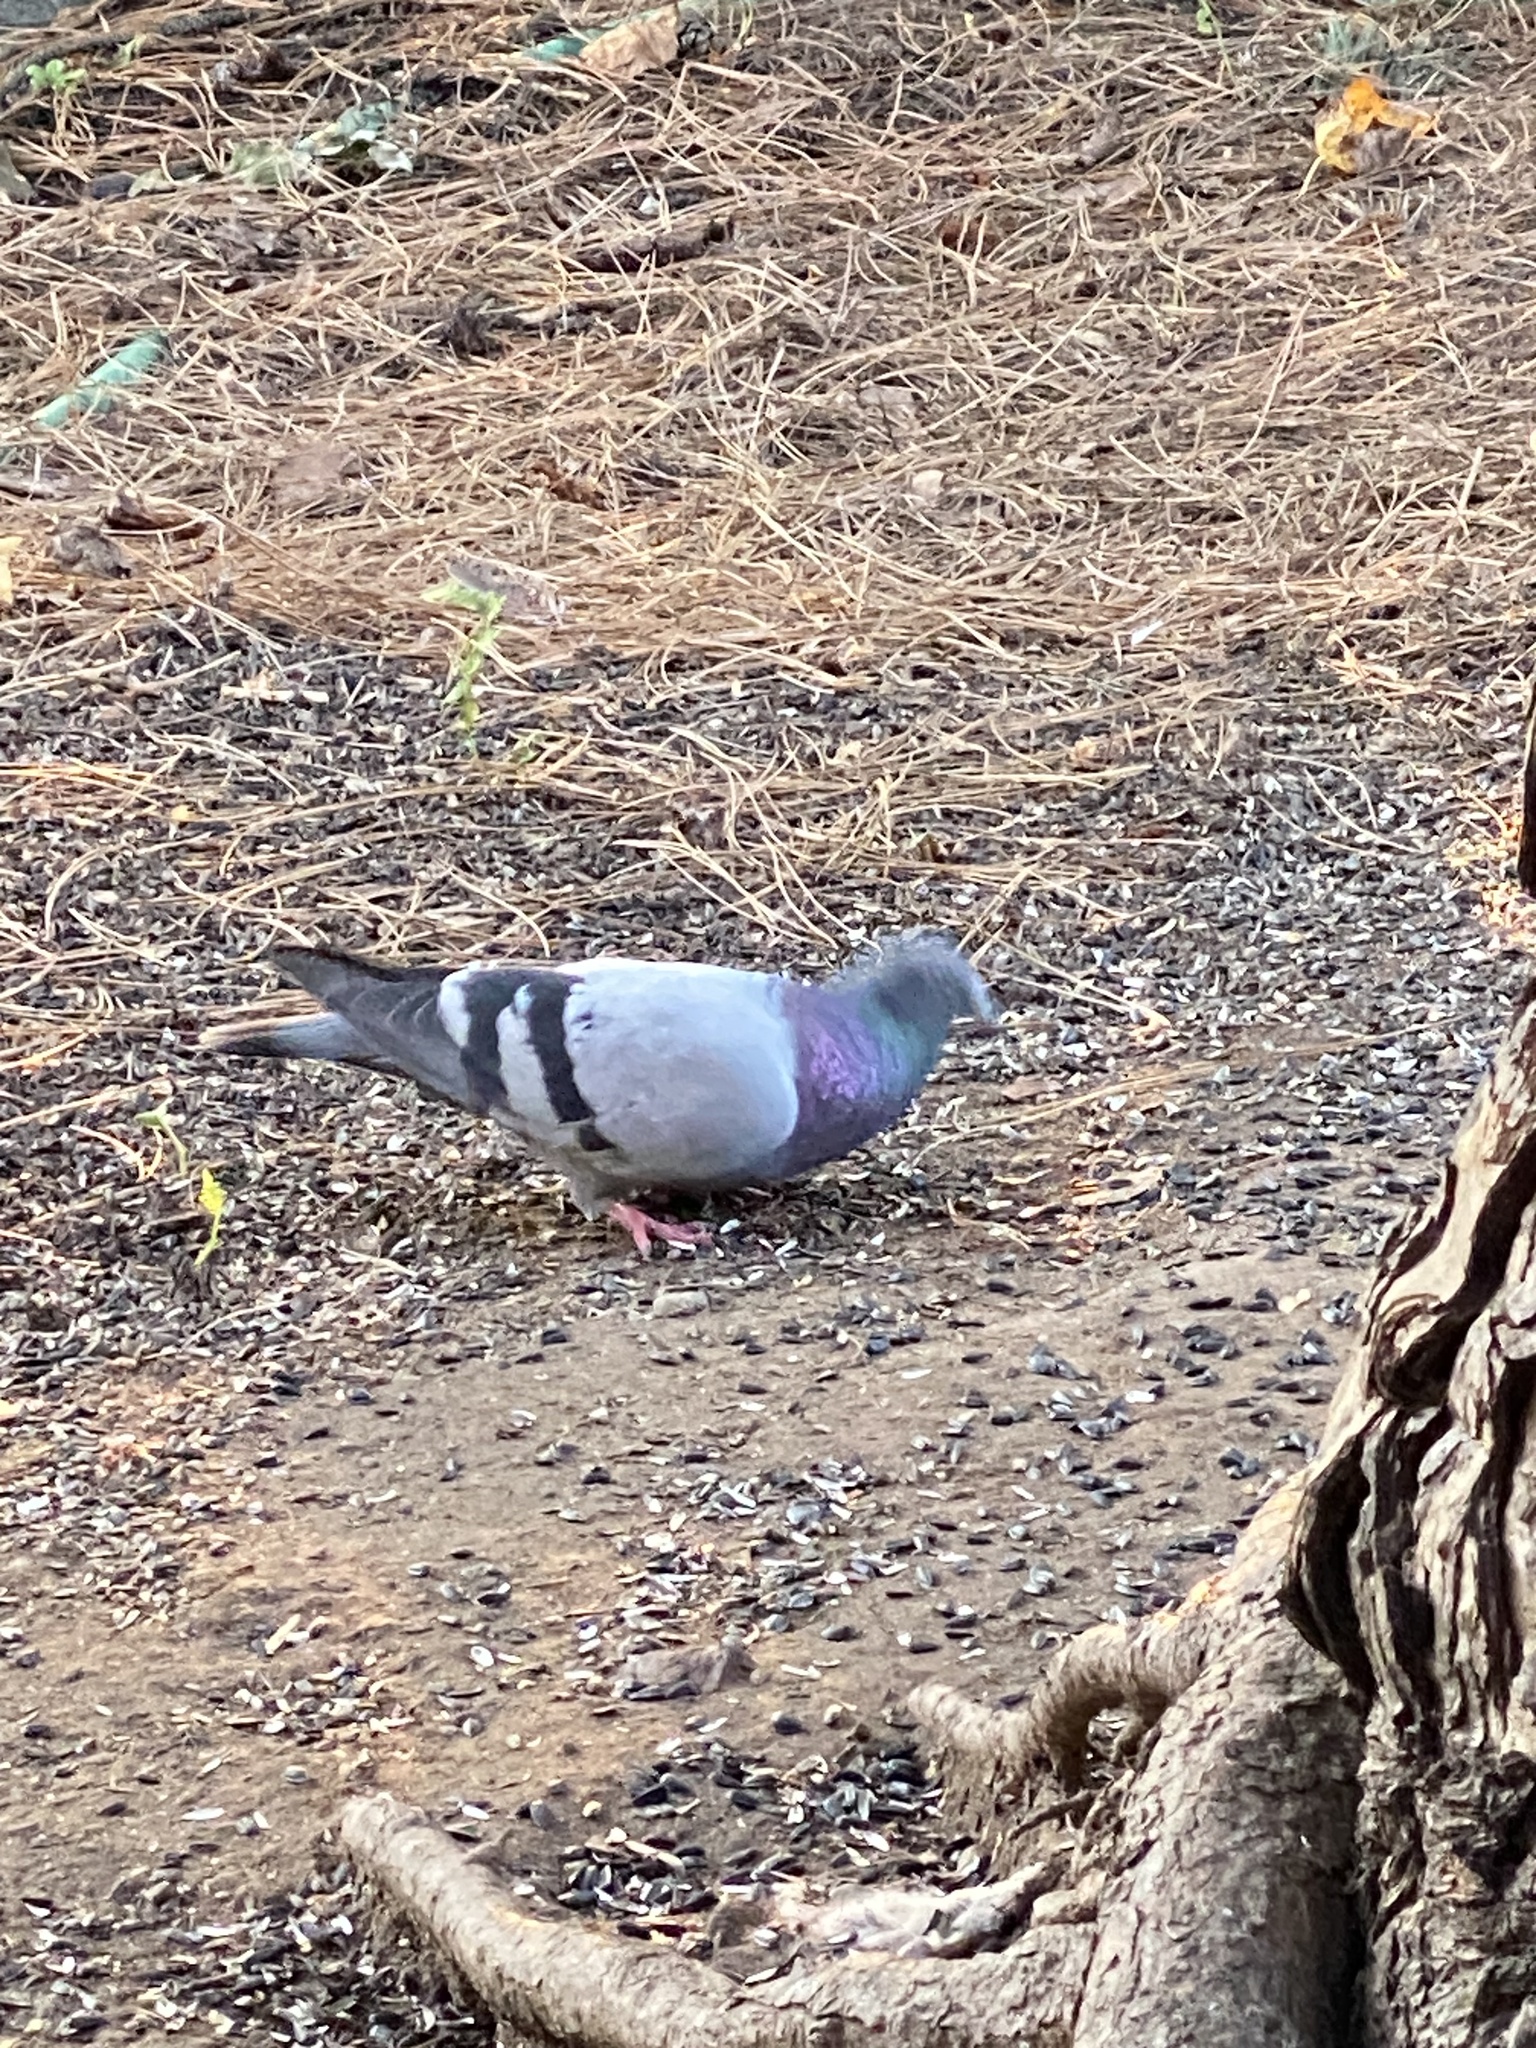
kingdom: Animalia
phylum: Chordata
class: Aves
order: Columbiformes
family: Columbidae
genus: Columba
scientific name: Columba livia
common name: Rock pigeon
